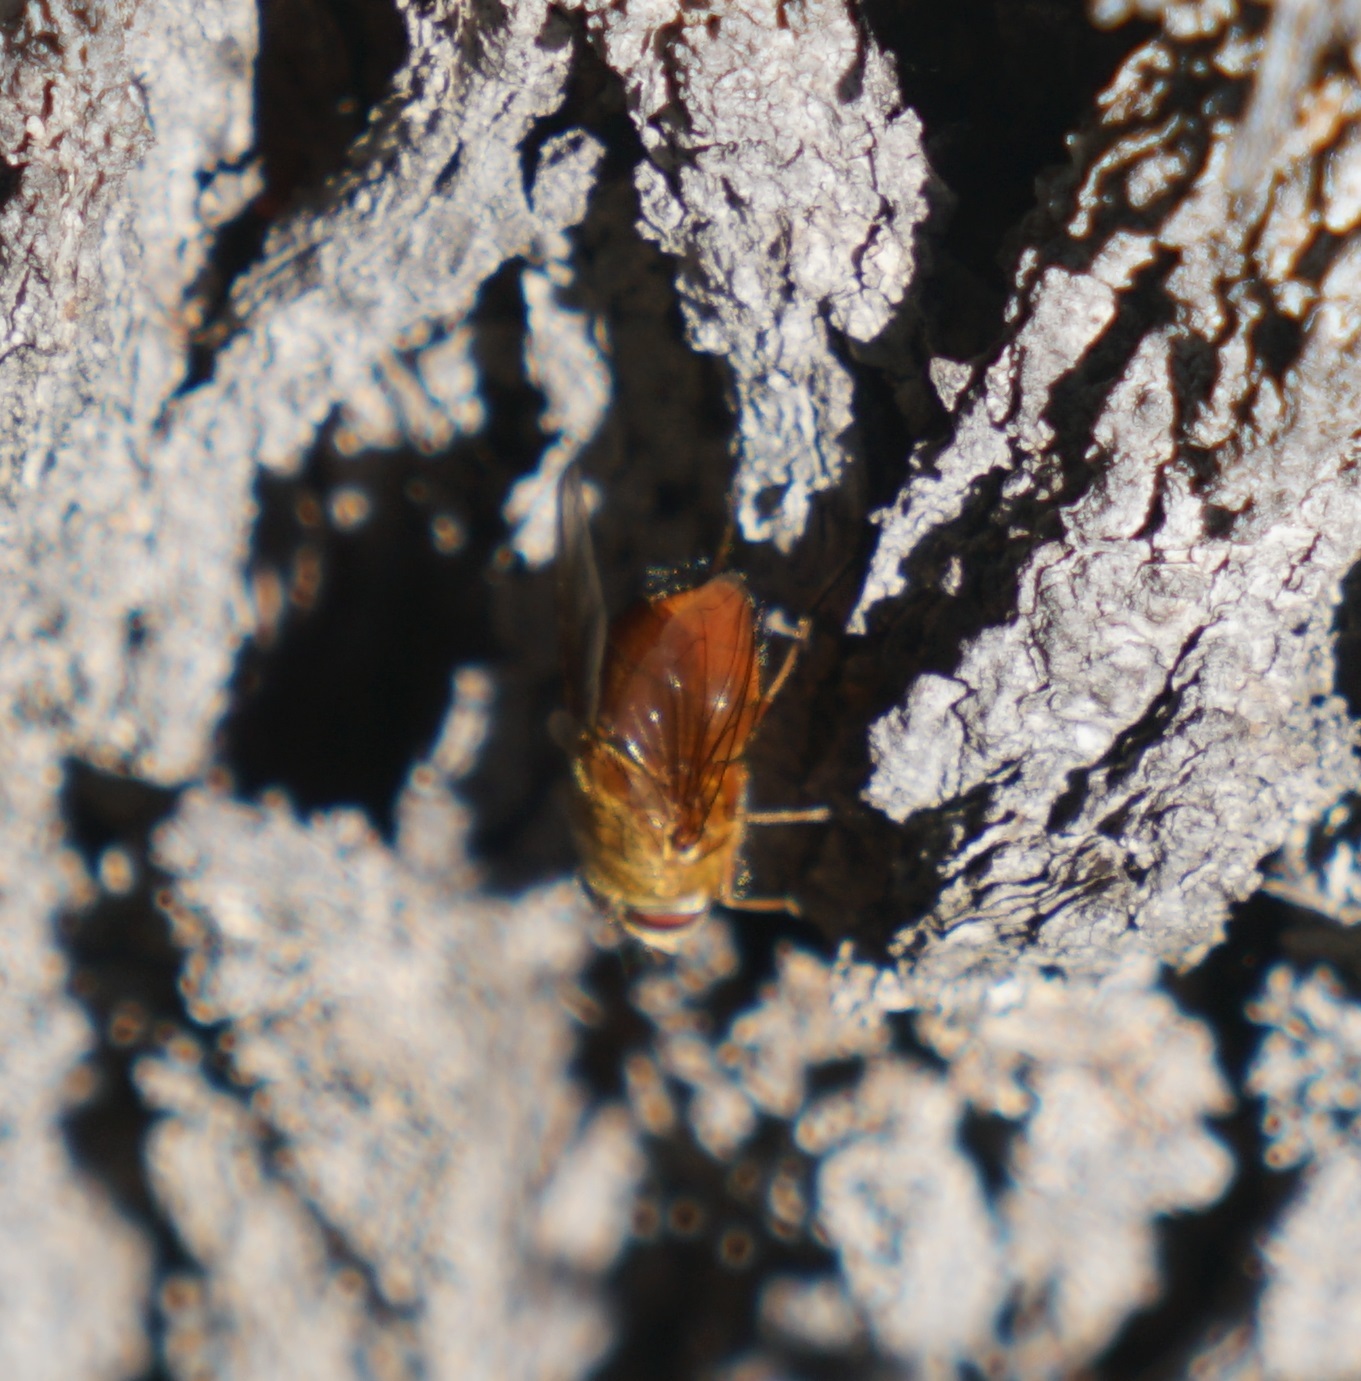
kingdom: Animalia
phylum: Arthropoda
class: Insecta
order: Diptera
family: Calliphoridae
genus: Calliphora
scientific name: Calliphora ochracea
